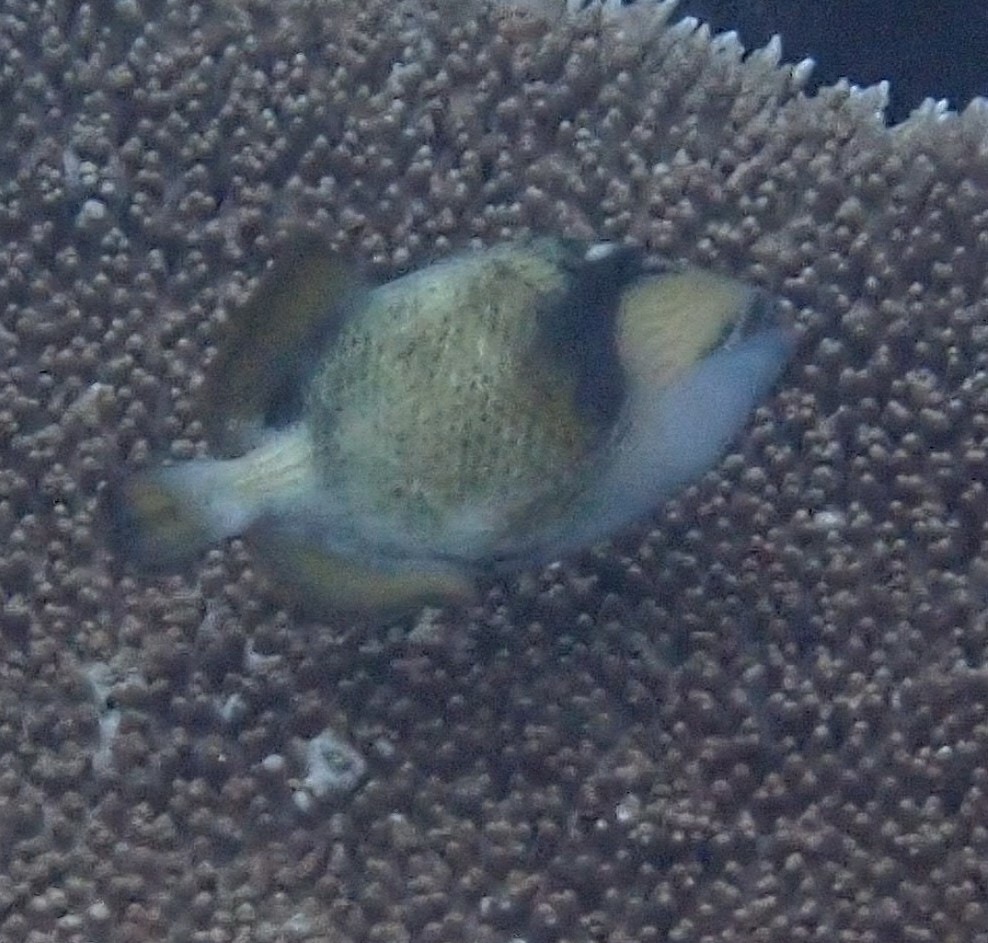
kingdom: Animalia
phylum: Chordata
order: Tetraodontiformes
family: Balistidae
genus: Balistoides
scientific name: Balistoides viridescens
